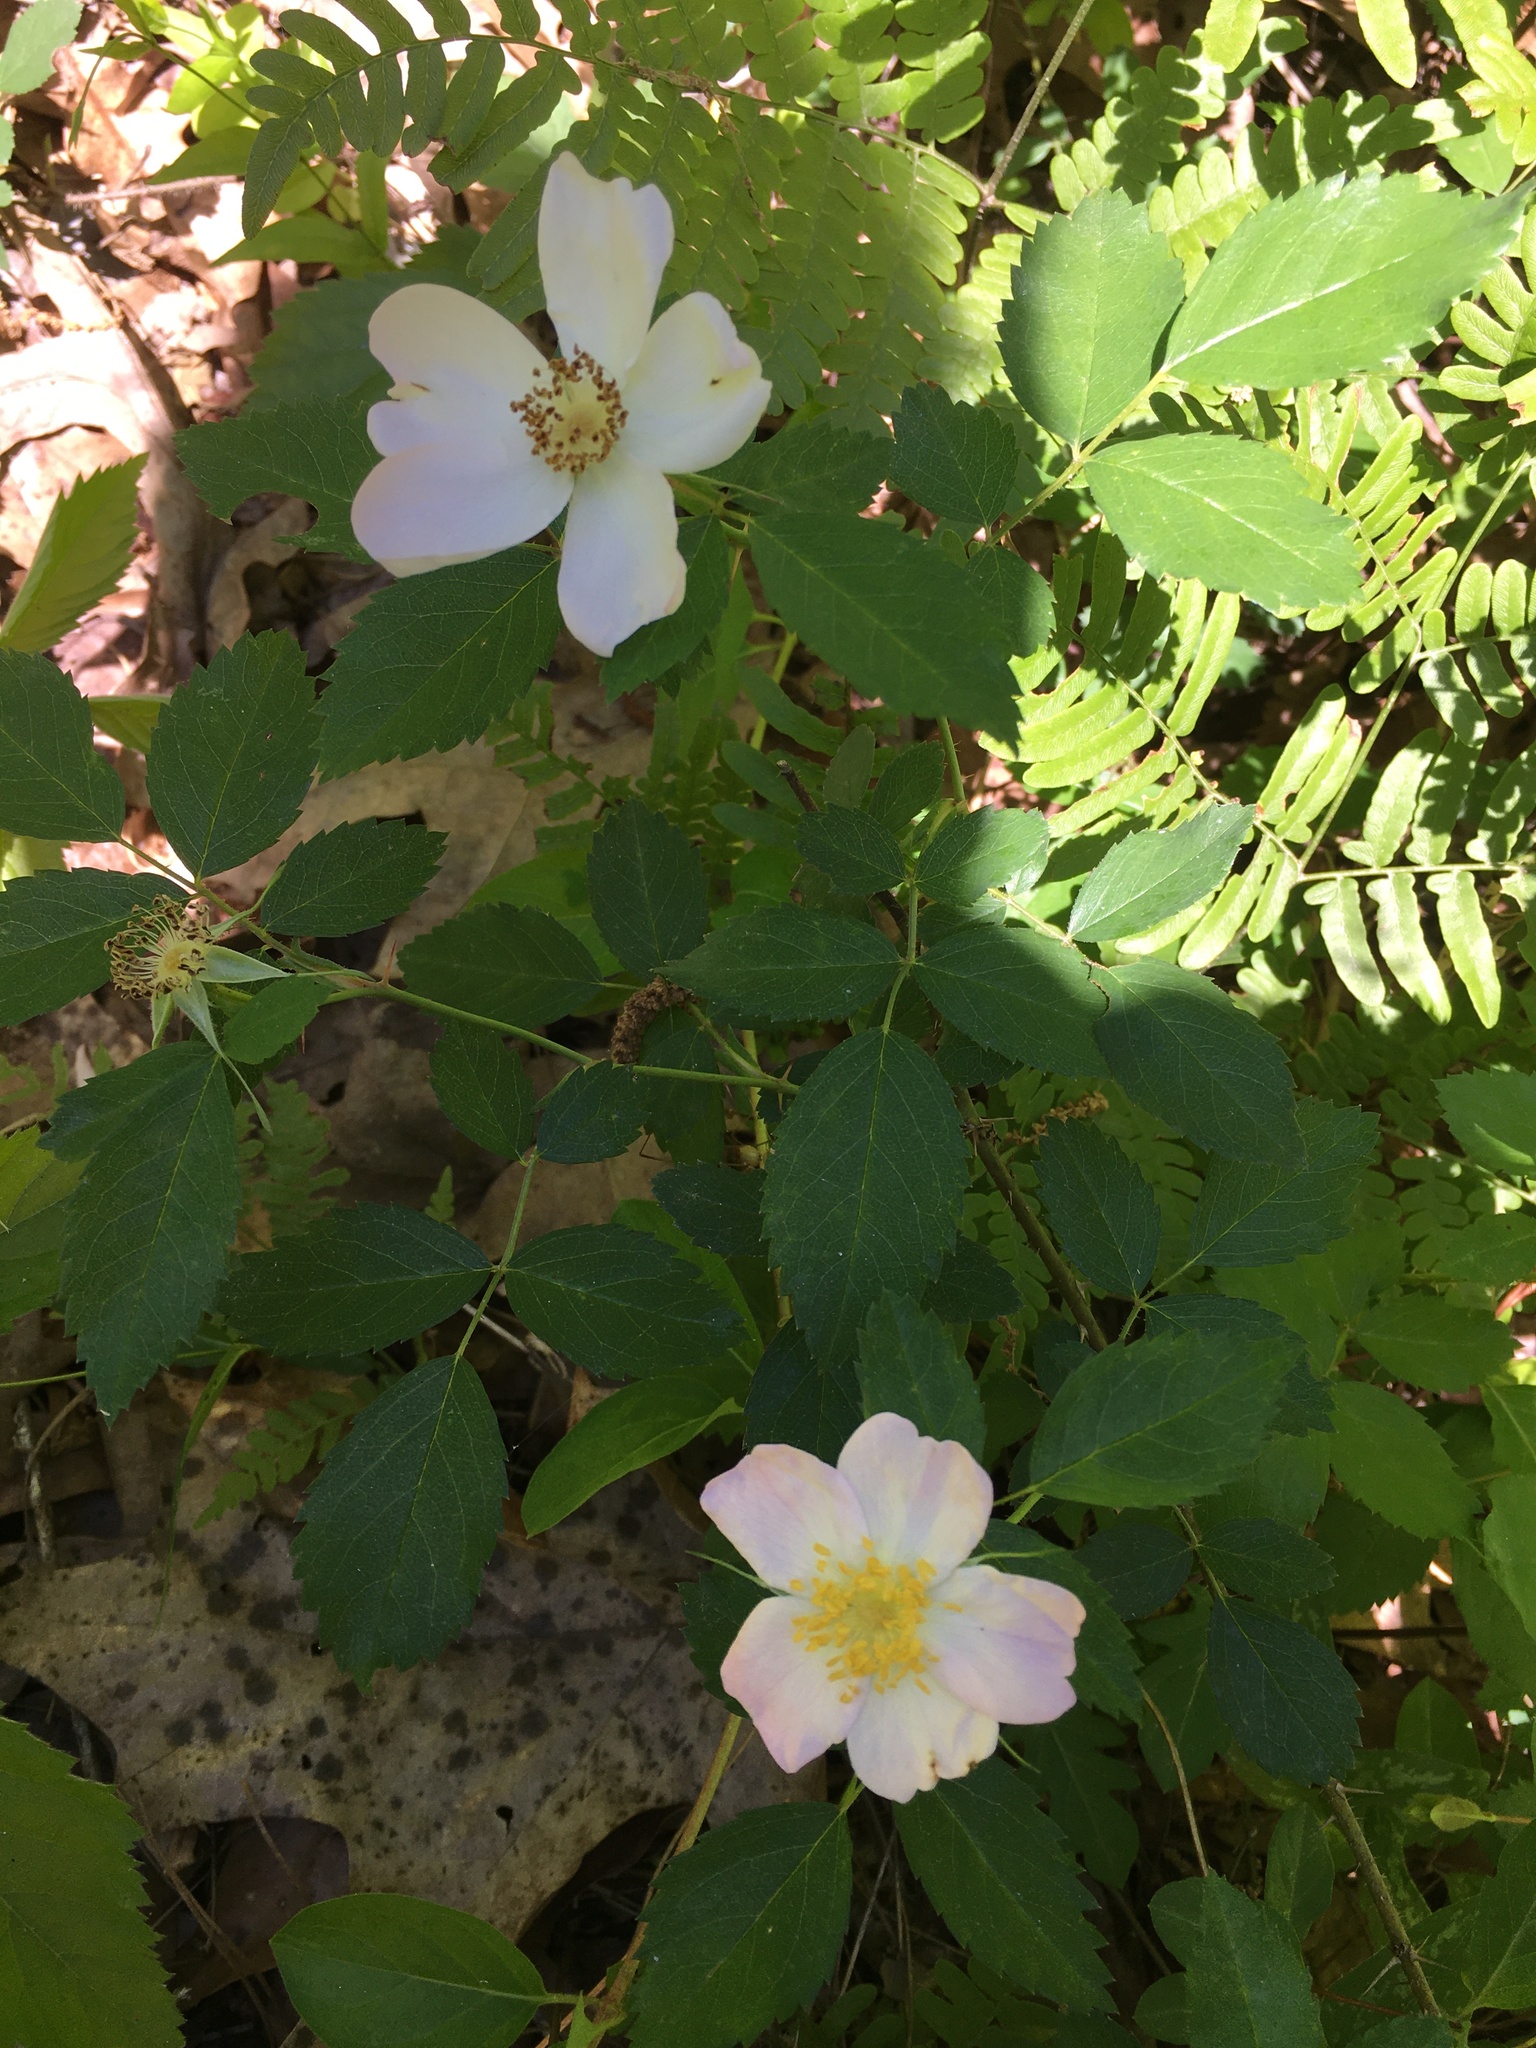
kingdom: Plantae
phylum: Tracheophyta
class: Magnoliopsida
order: Rosales
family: Rosaceae
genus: Rosa
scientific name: Rosa carolina
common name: Pasture rose
